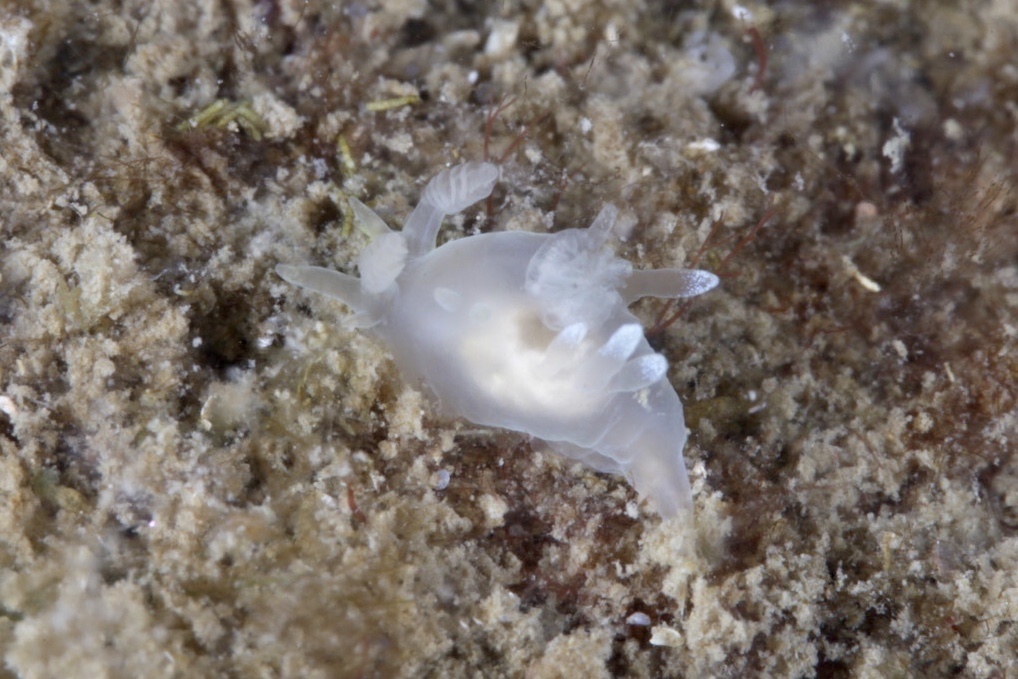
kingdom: Animalia
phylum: Mollusca
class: Gastropoda
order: Nudibranchia
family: Goniodorididae
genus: Ancula
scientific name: Ancula gibbosa
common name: Atlantic ancula
